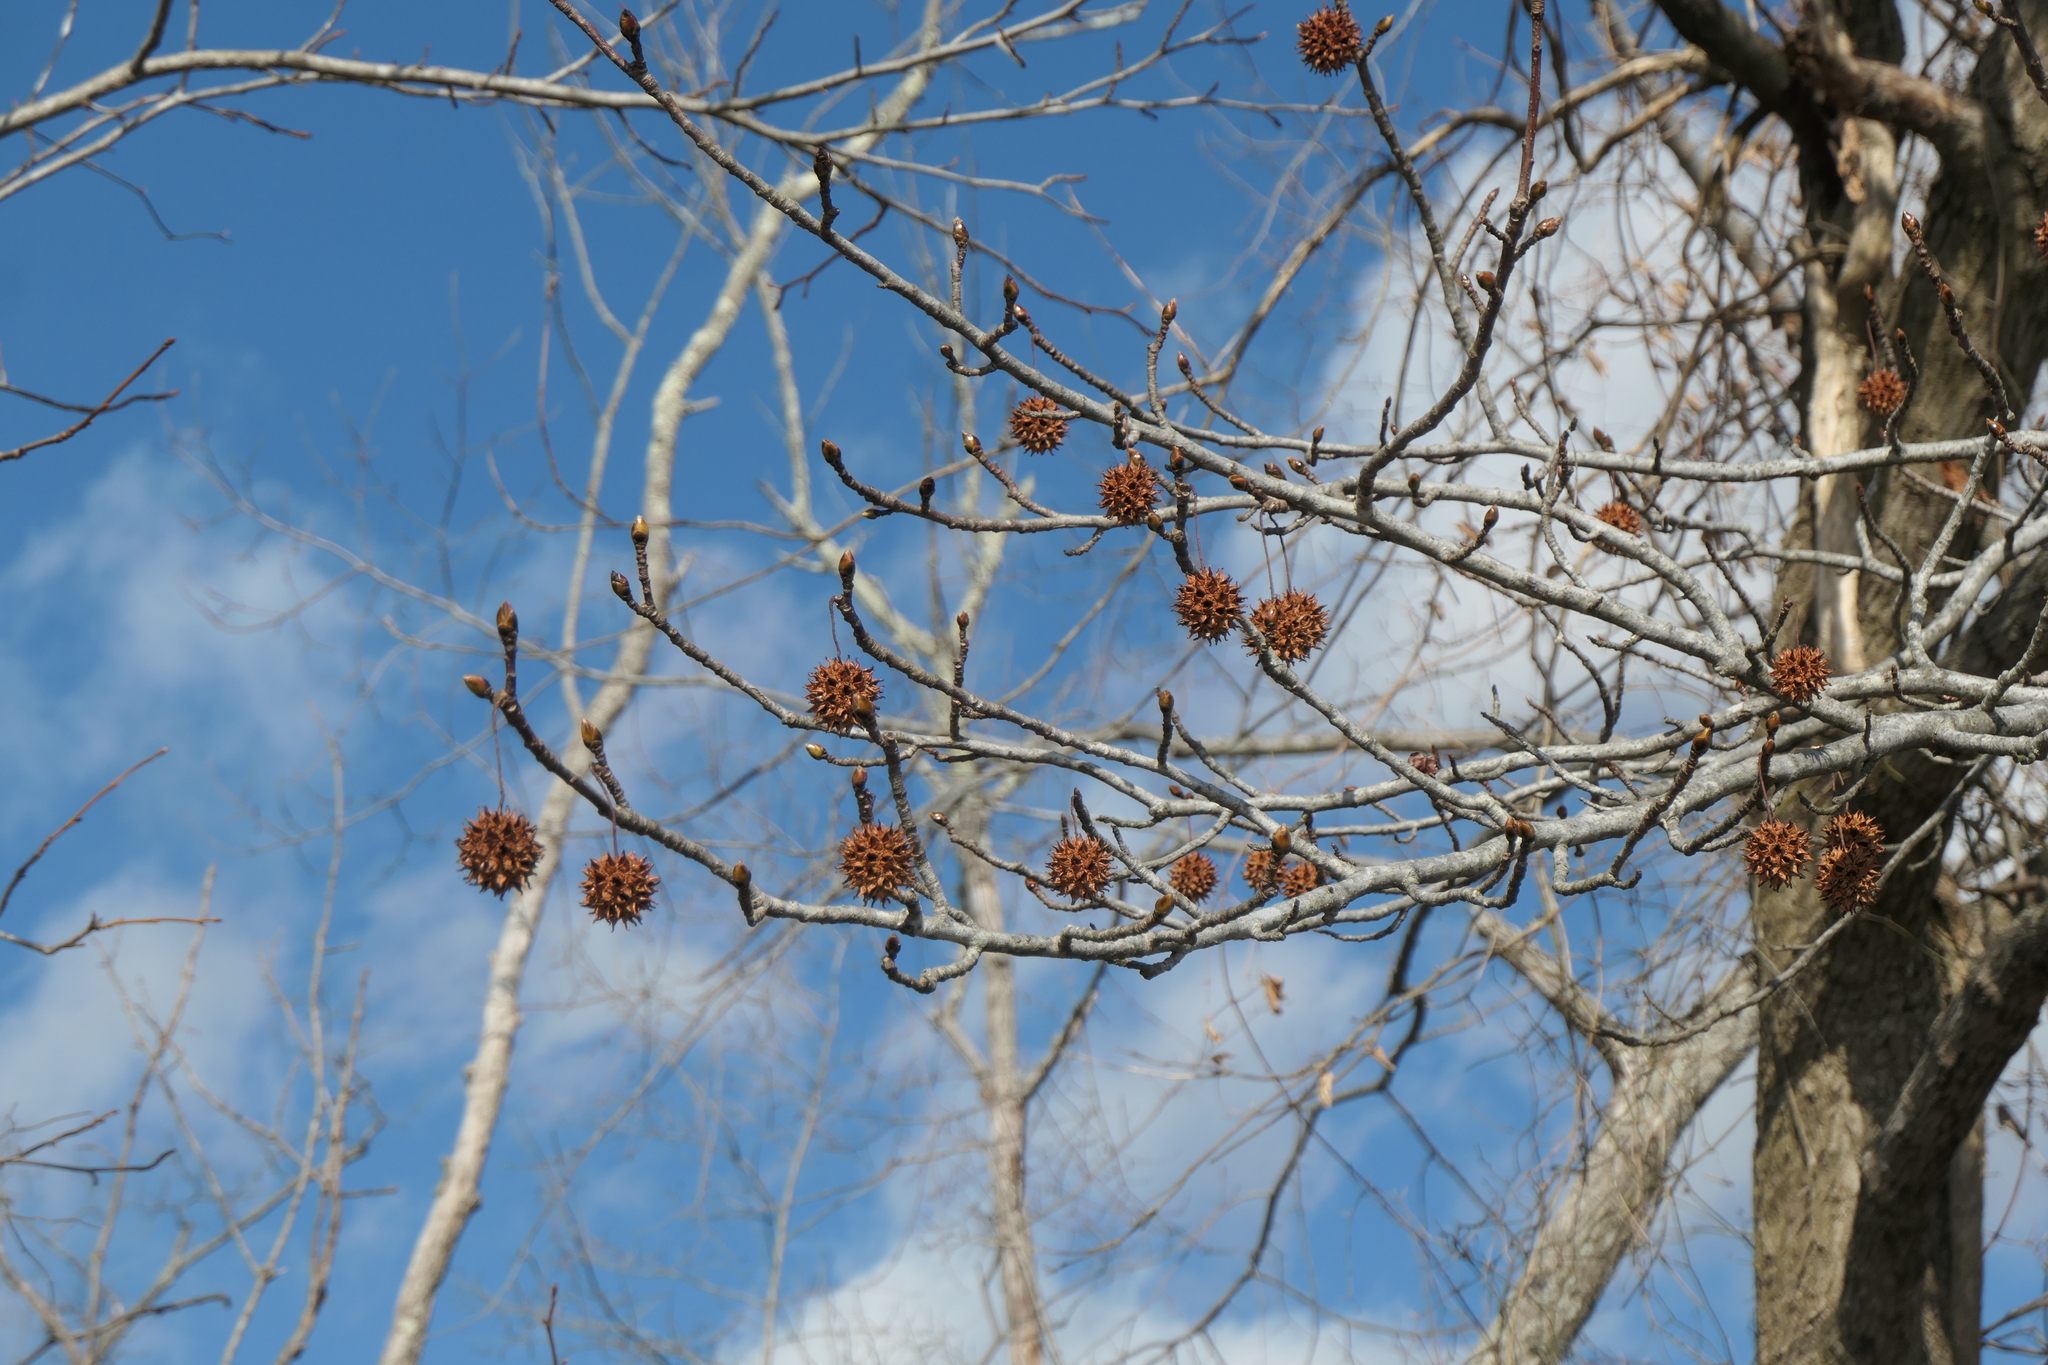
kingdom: Plantae
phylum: Tracheophyta
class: Magnoliopsida
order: Saxifragales
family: Altingiaceae
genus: Liquidambar
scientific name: Liquidambar styraciflua
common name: Sweet gum
